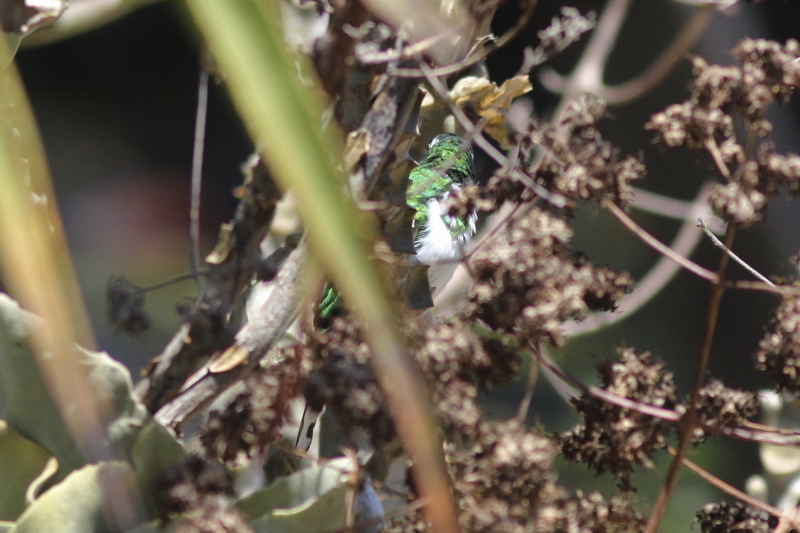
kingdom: Animalia
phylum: Chordata
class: Aves
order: Cuculiformes
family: Cuculidae
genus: Chrysococcyx
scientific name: Chrysococcyx klaas
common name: Klaas's cuckoo
